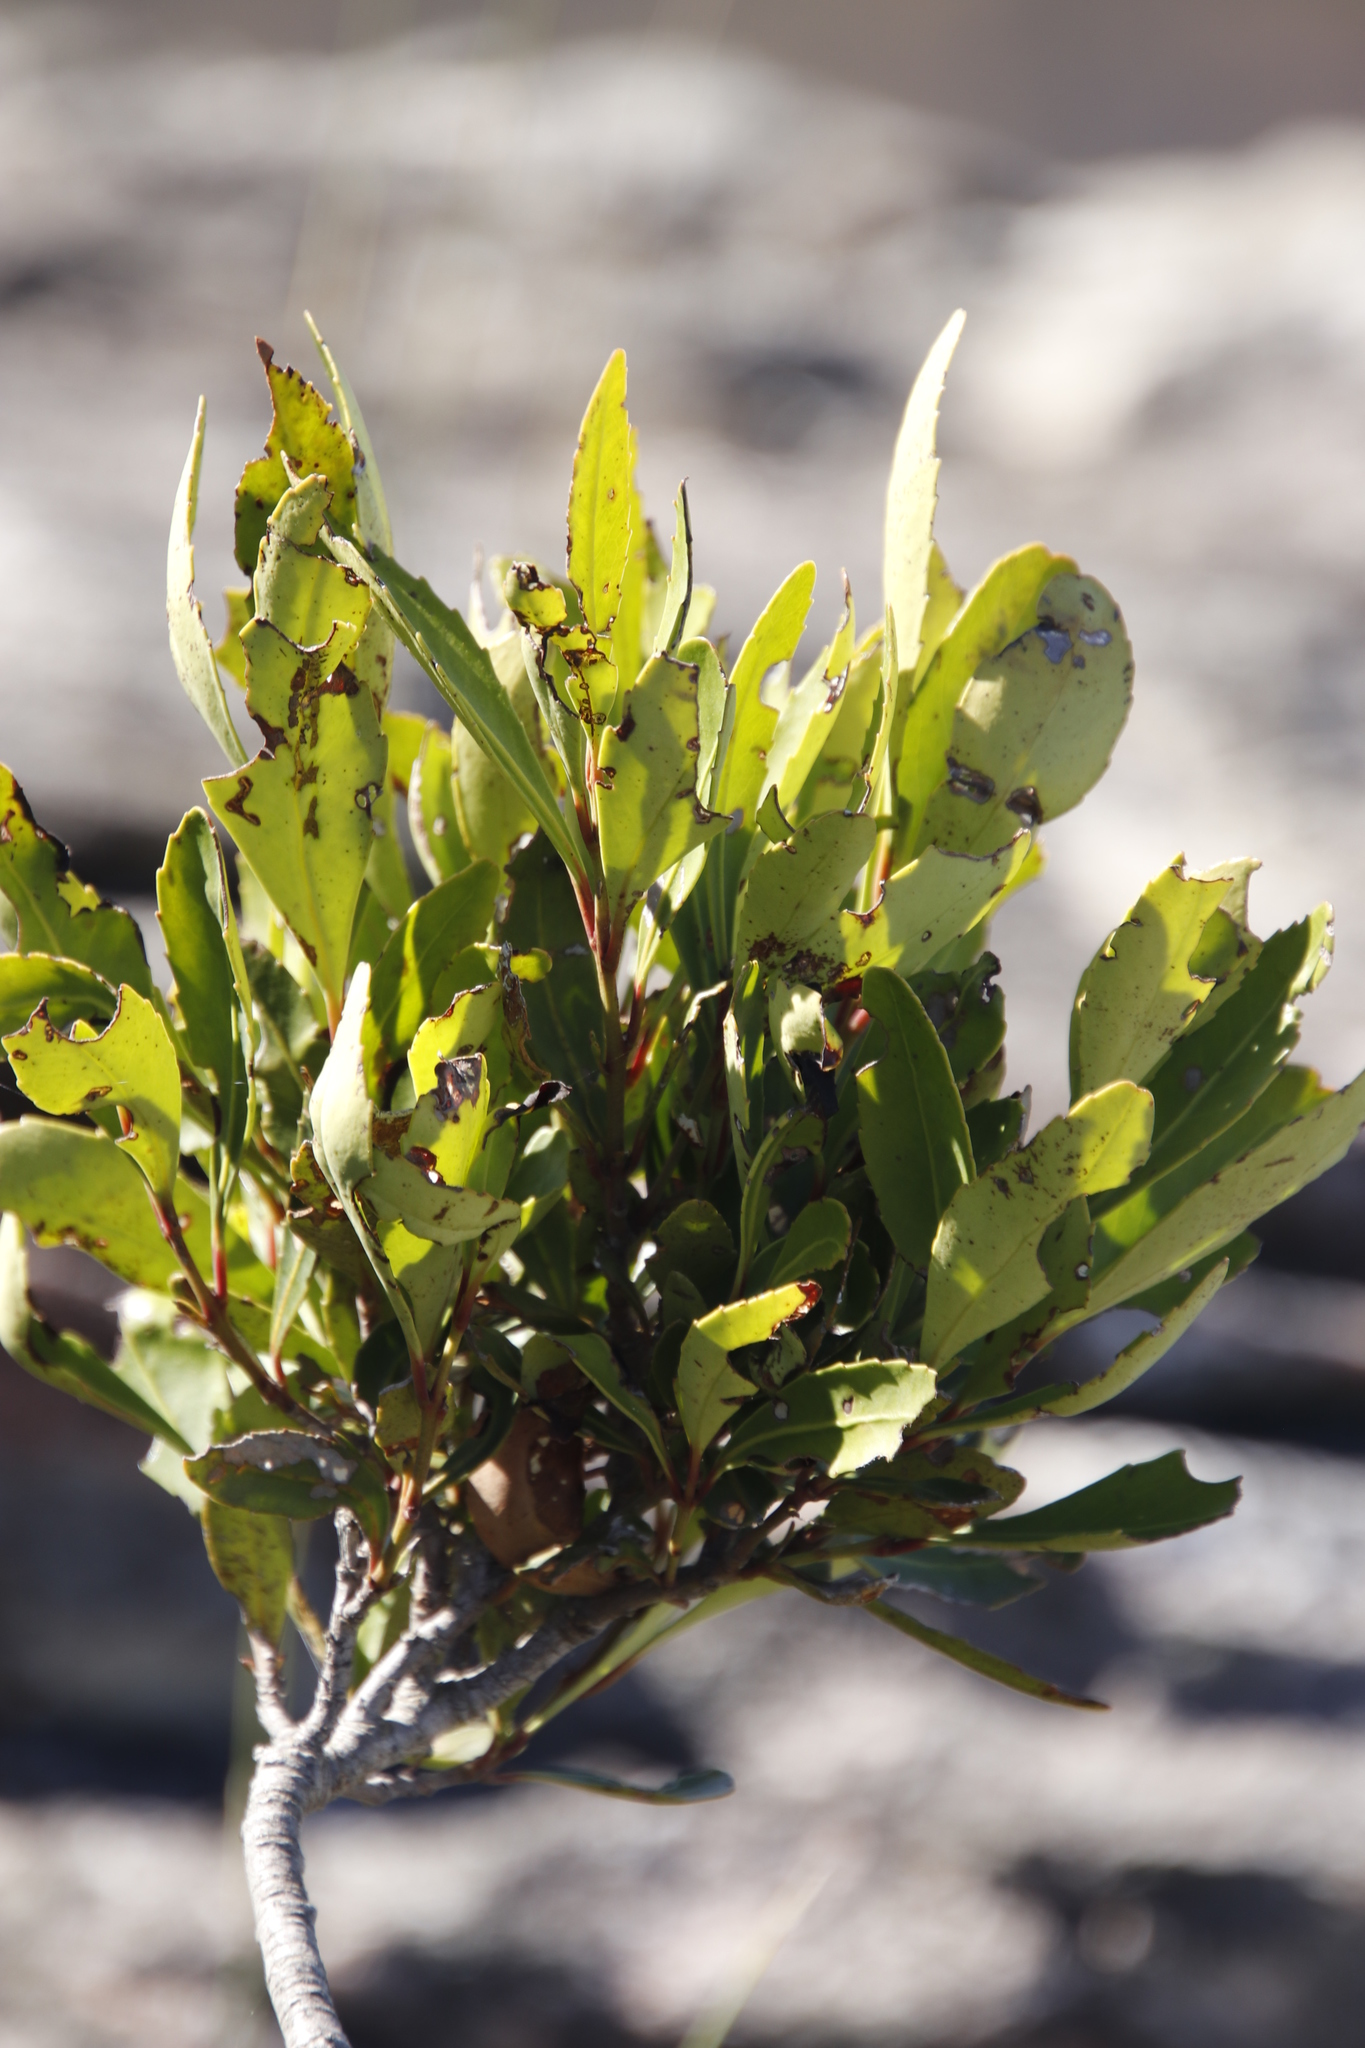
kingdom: Plantae
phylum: Tracheophyta
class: Magnoliopsida
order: Celastrales
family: Celastraceae
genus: Elaeodendron
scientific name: Elaeodendron schinoides
